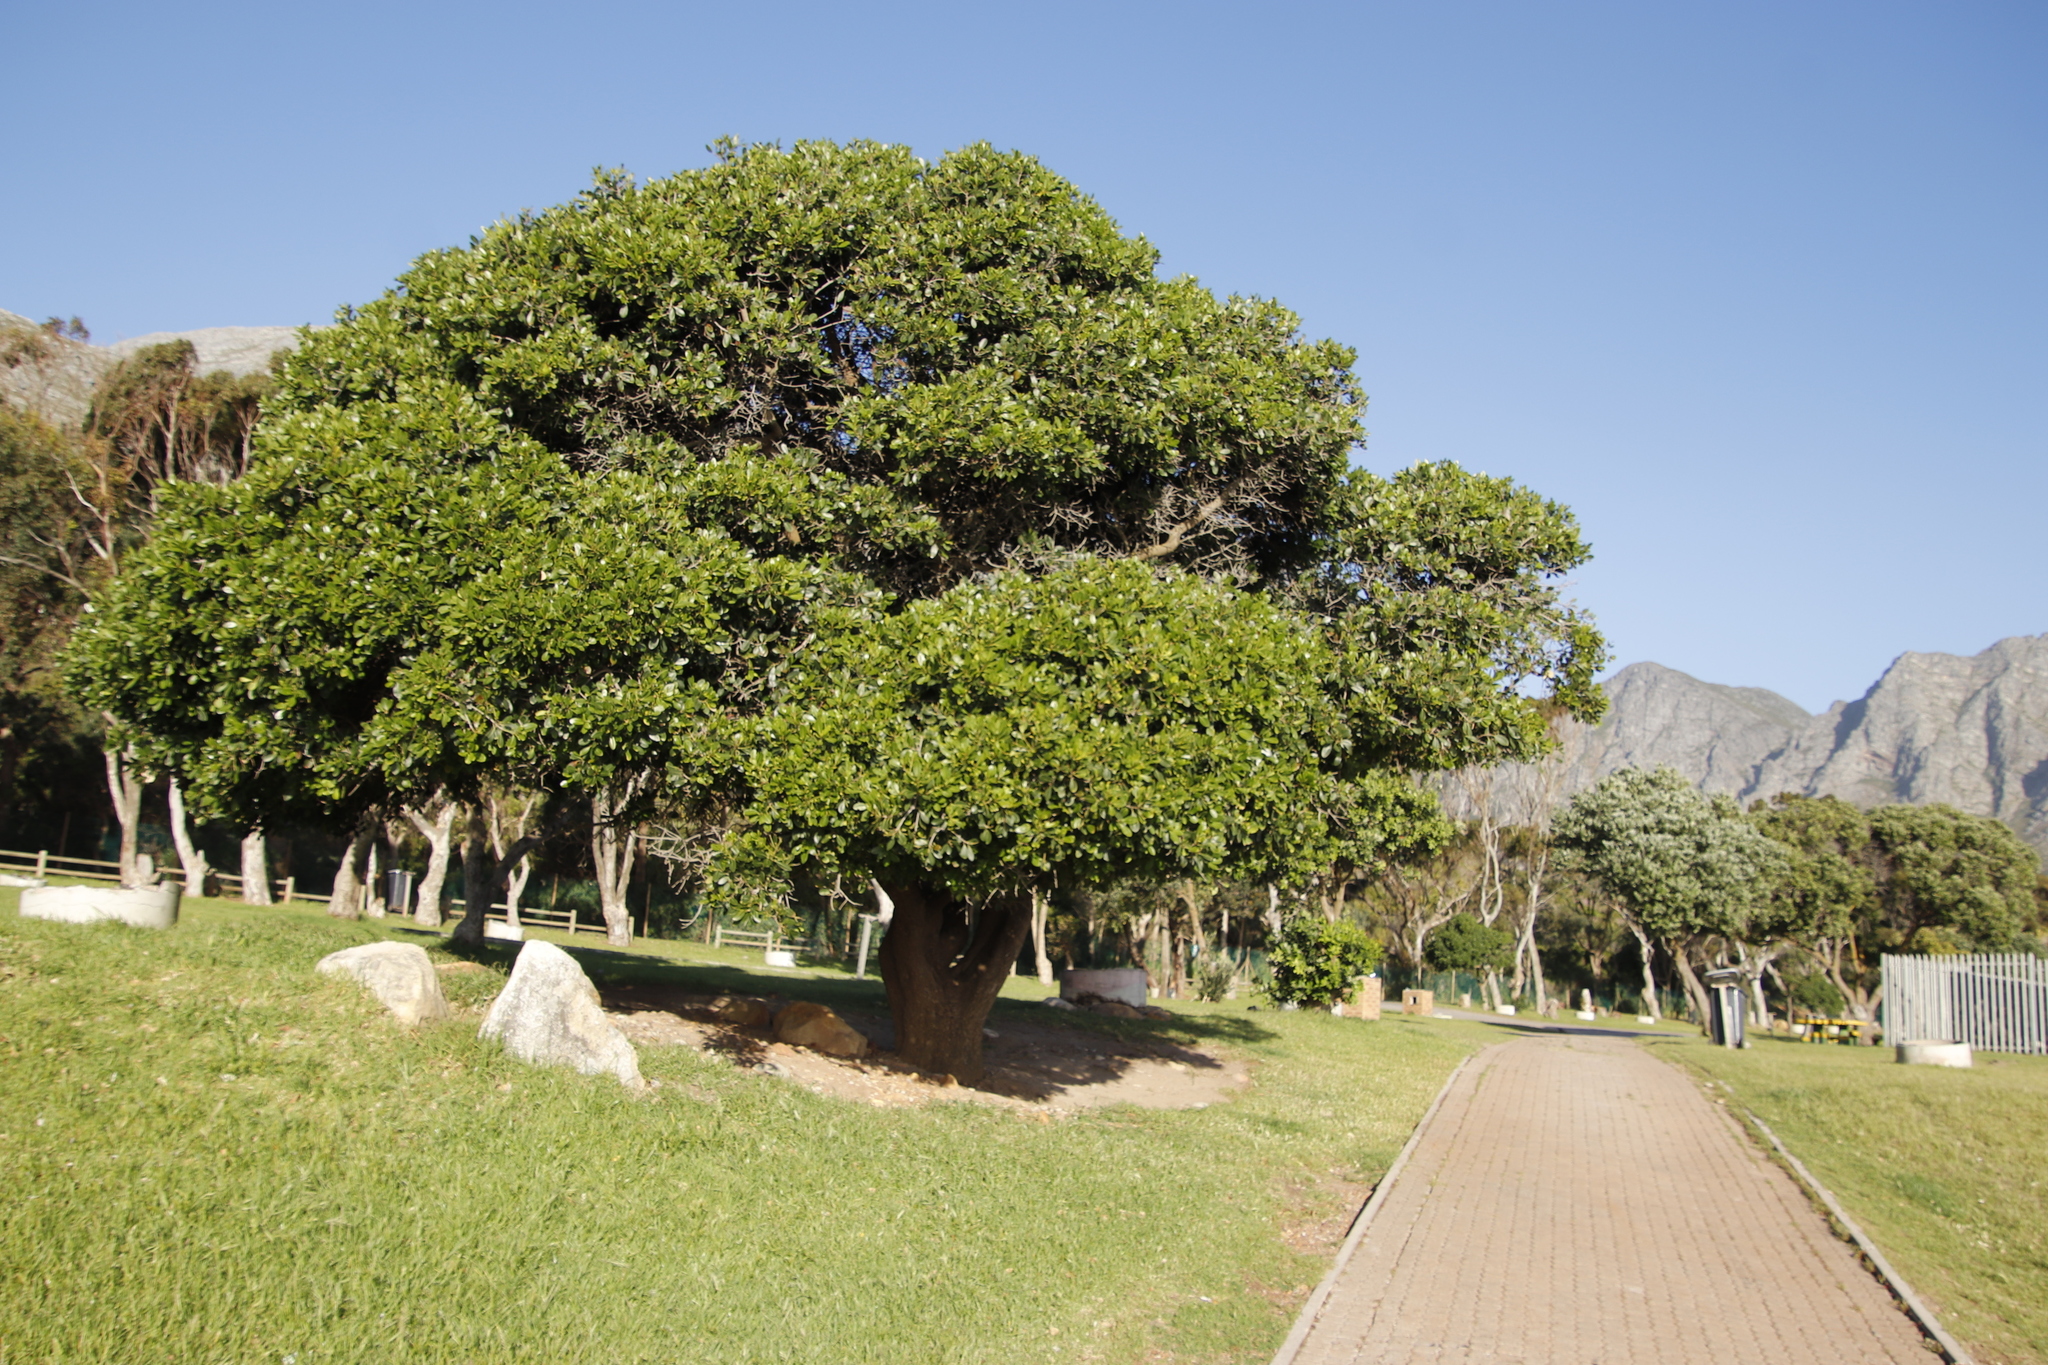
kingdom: Plantae
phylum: Tracheophyta
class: Magnoliopsida
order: Ericales
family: Sapotaceae
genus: Sideroxylon
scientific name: Sideroxylon inerme
